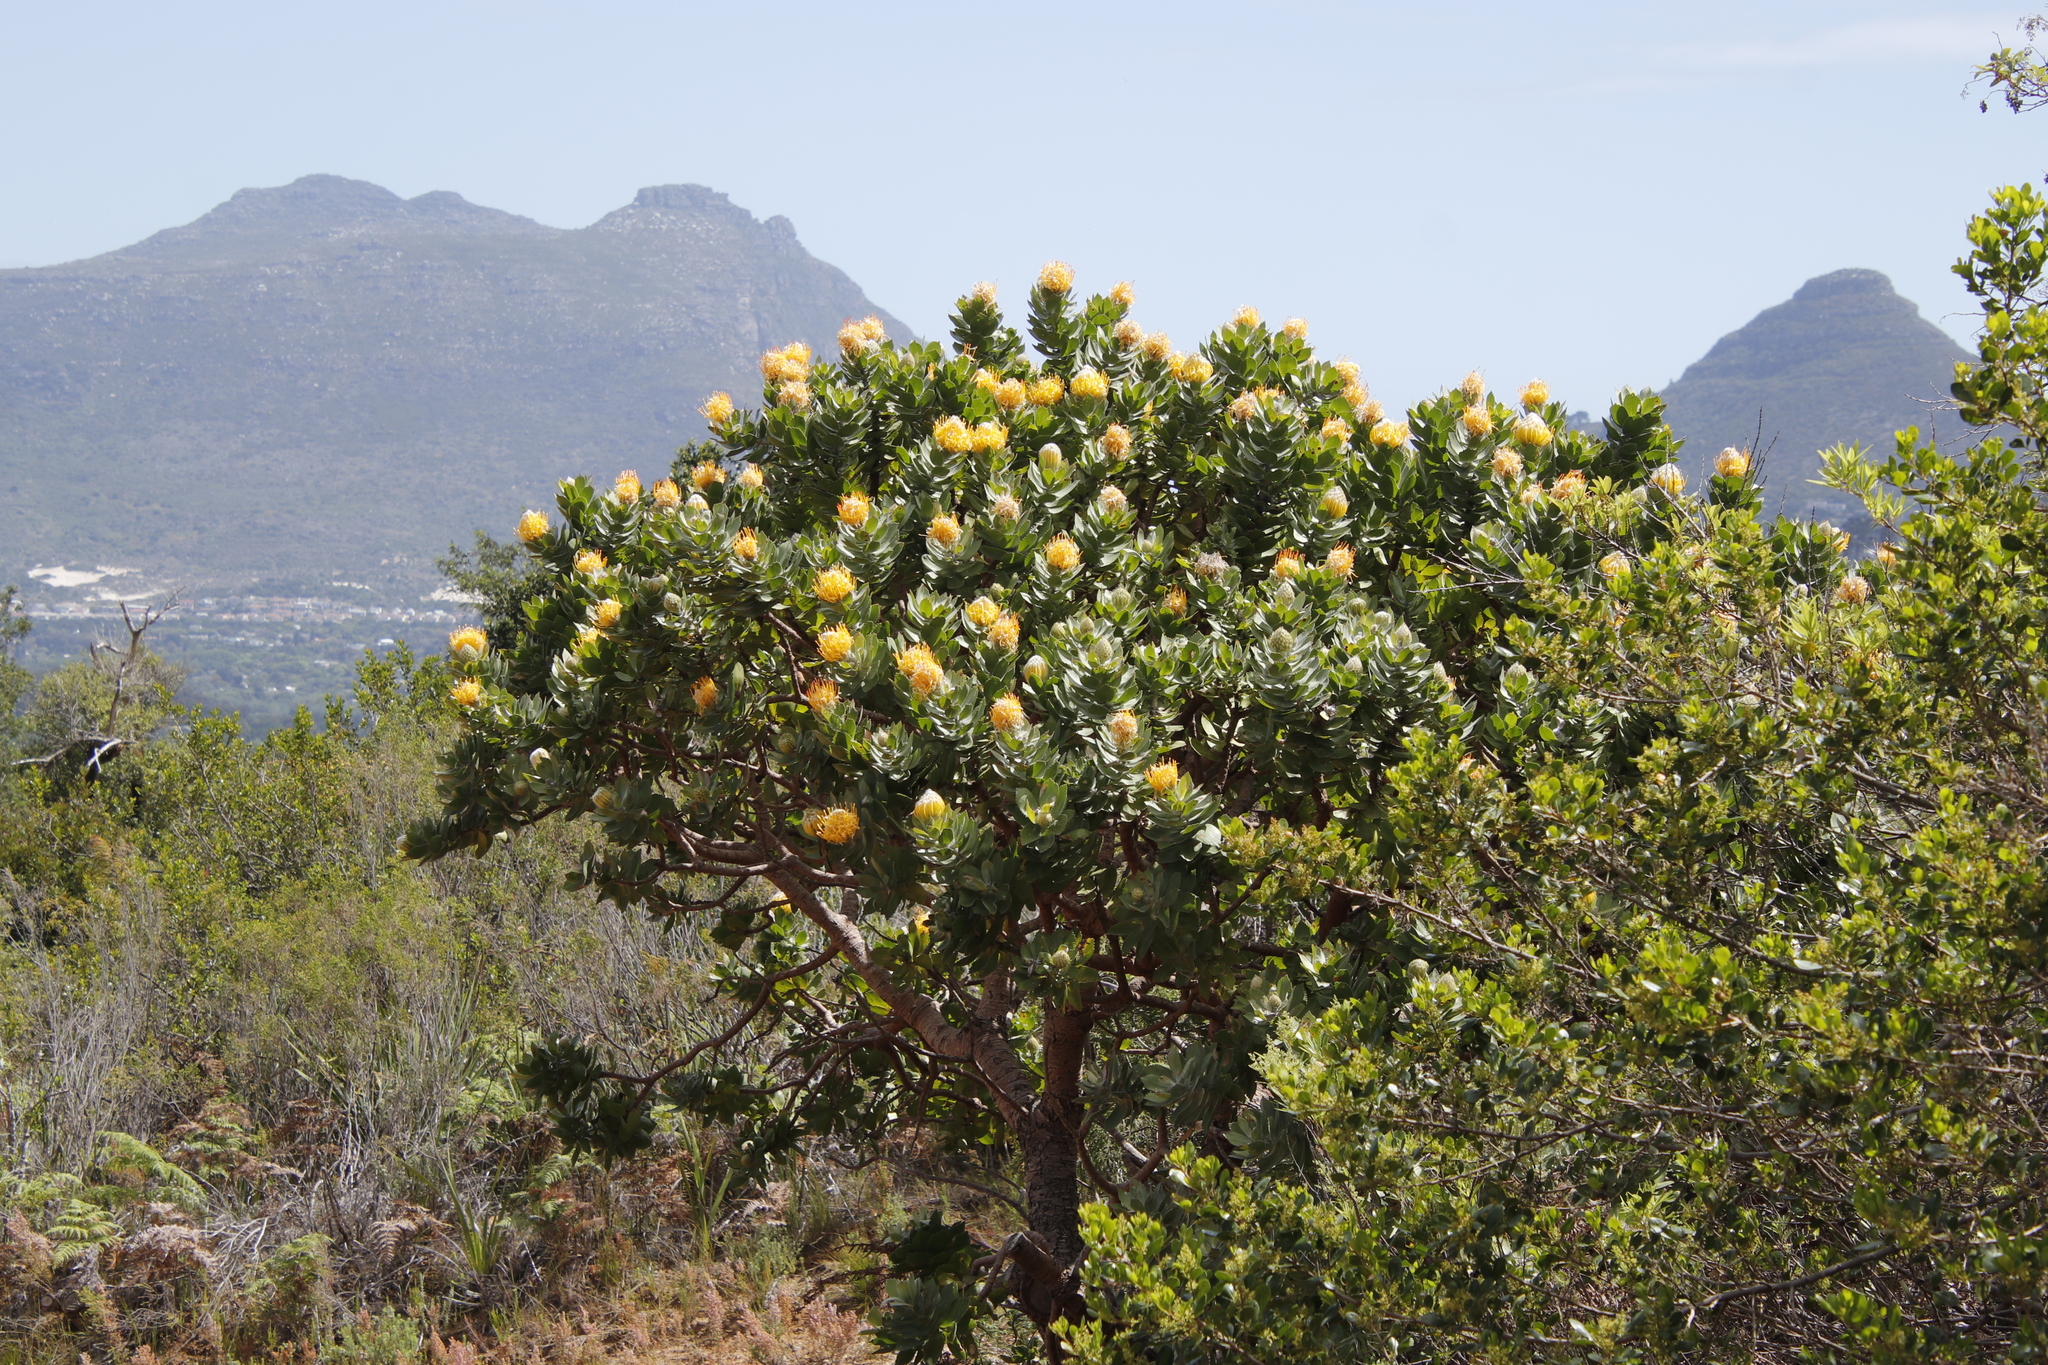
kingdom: Plantae
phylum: Tracheophyta
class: Magnoliopsida
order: Proteales
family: Proteaceae
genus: Leucospermum
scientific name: Leucospermum conocarpodendron
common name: Tree pincushion
